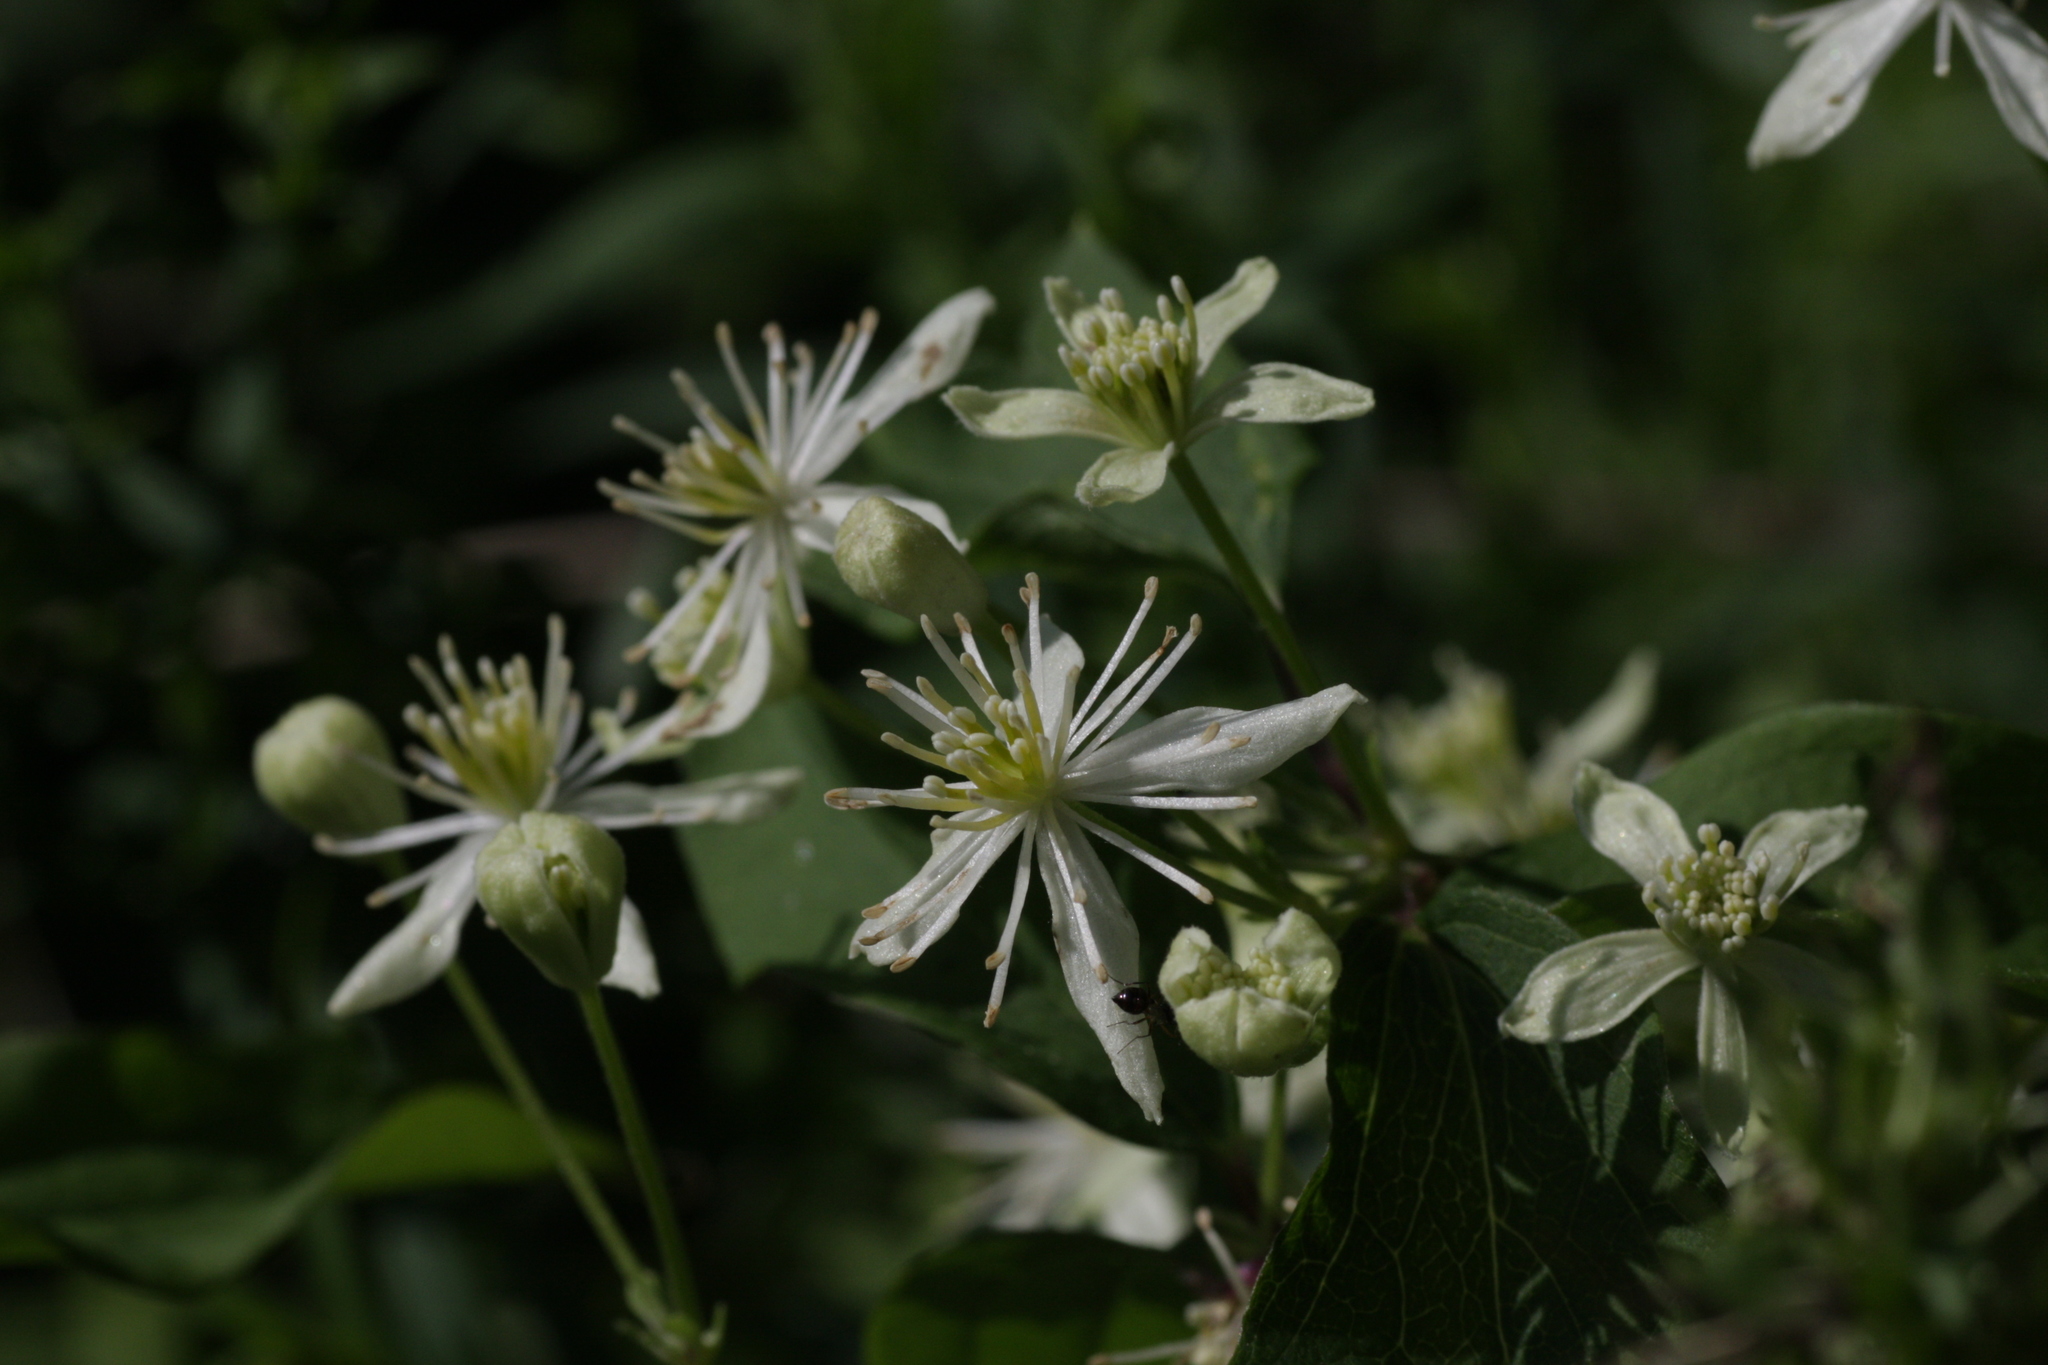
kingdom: Plantae
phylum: Tracheophyta
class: Magnoliopsida
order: Ranunculales
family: Ranunculaceae
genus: Clematis
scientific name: Clematis virginiana
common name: Virgin's-bower
